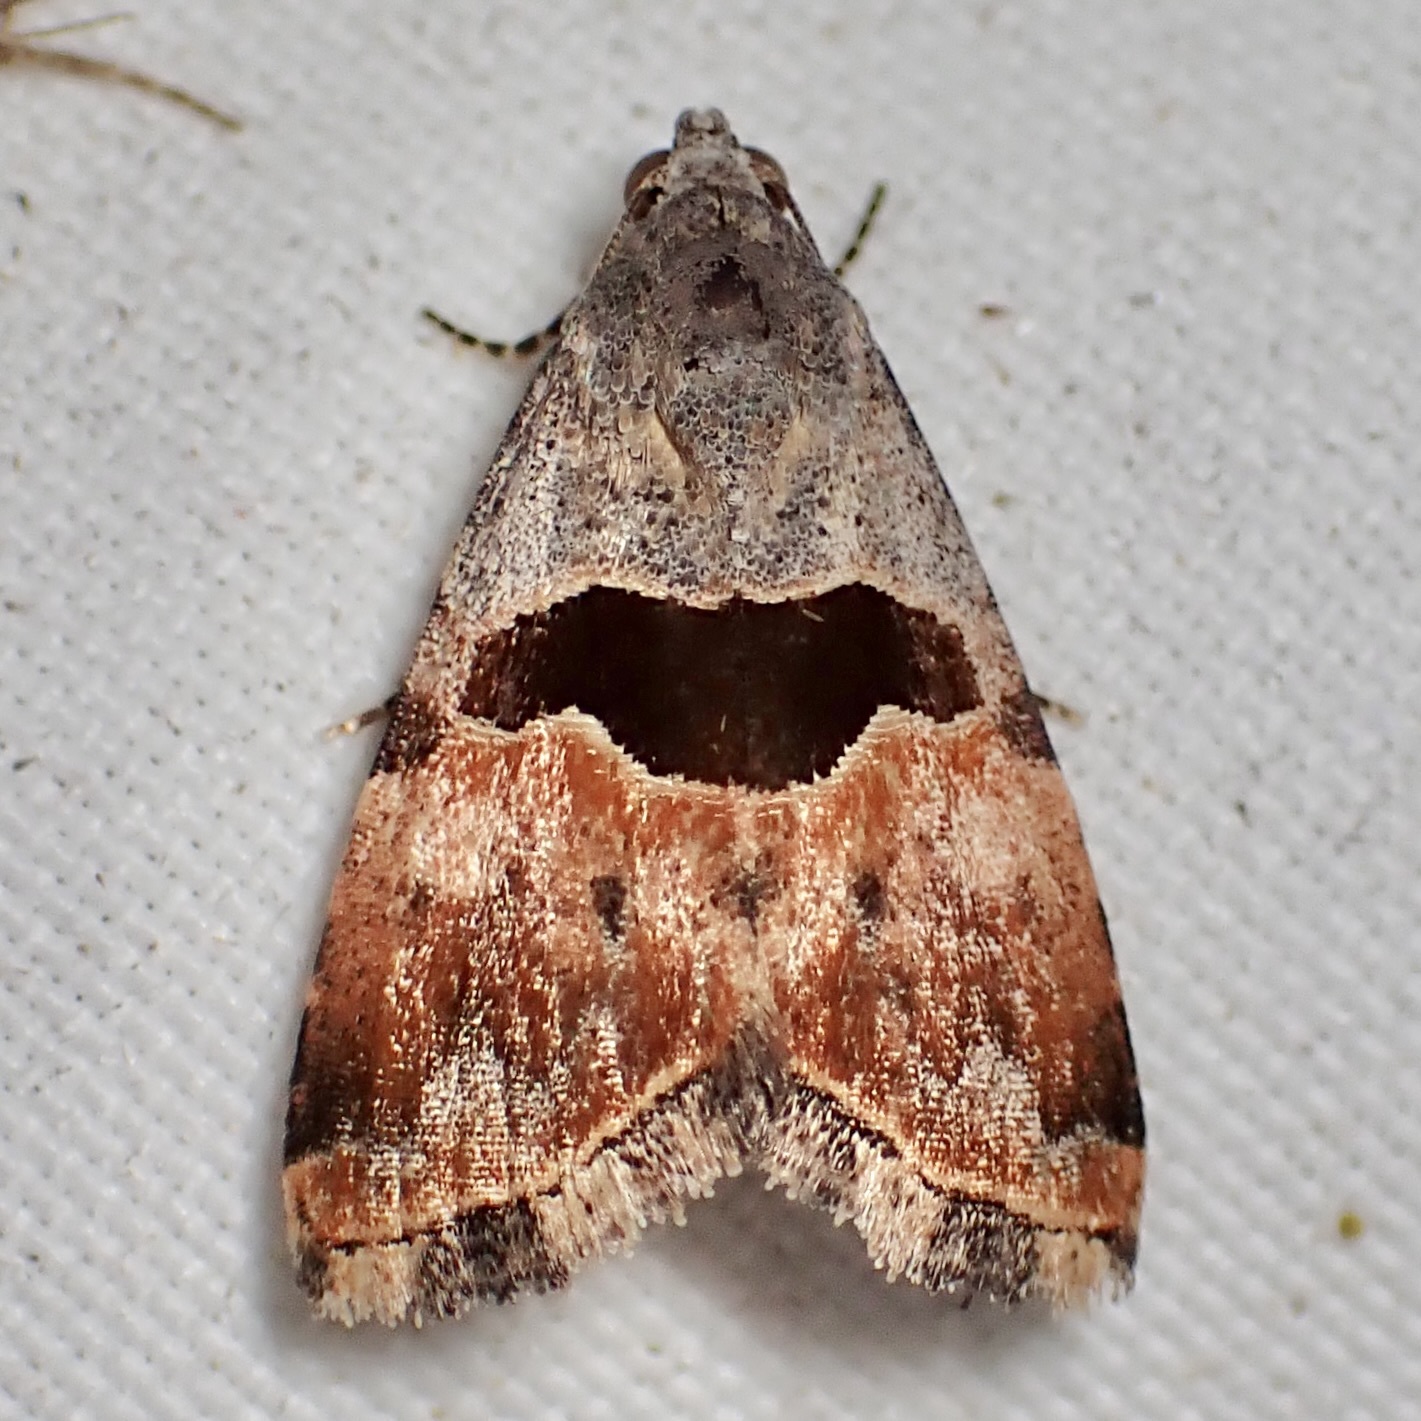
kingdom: Animalia
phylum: Arthropoda
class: Insecta
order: Lepidoptera
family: Noctuidae
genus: Cobubatha
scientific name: Cobubatha lixiva
